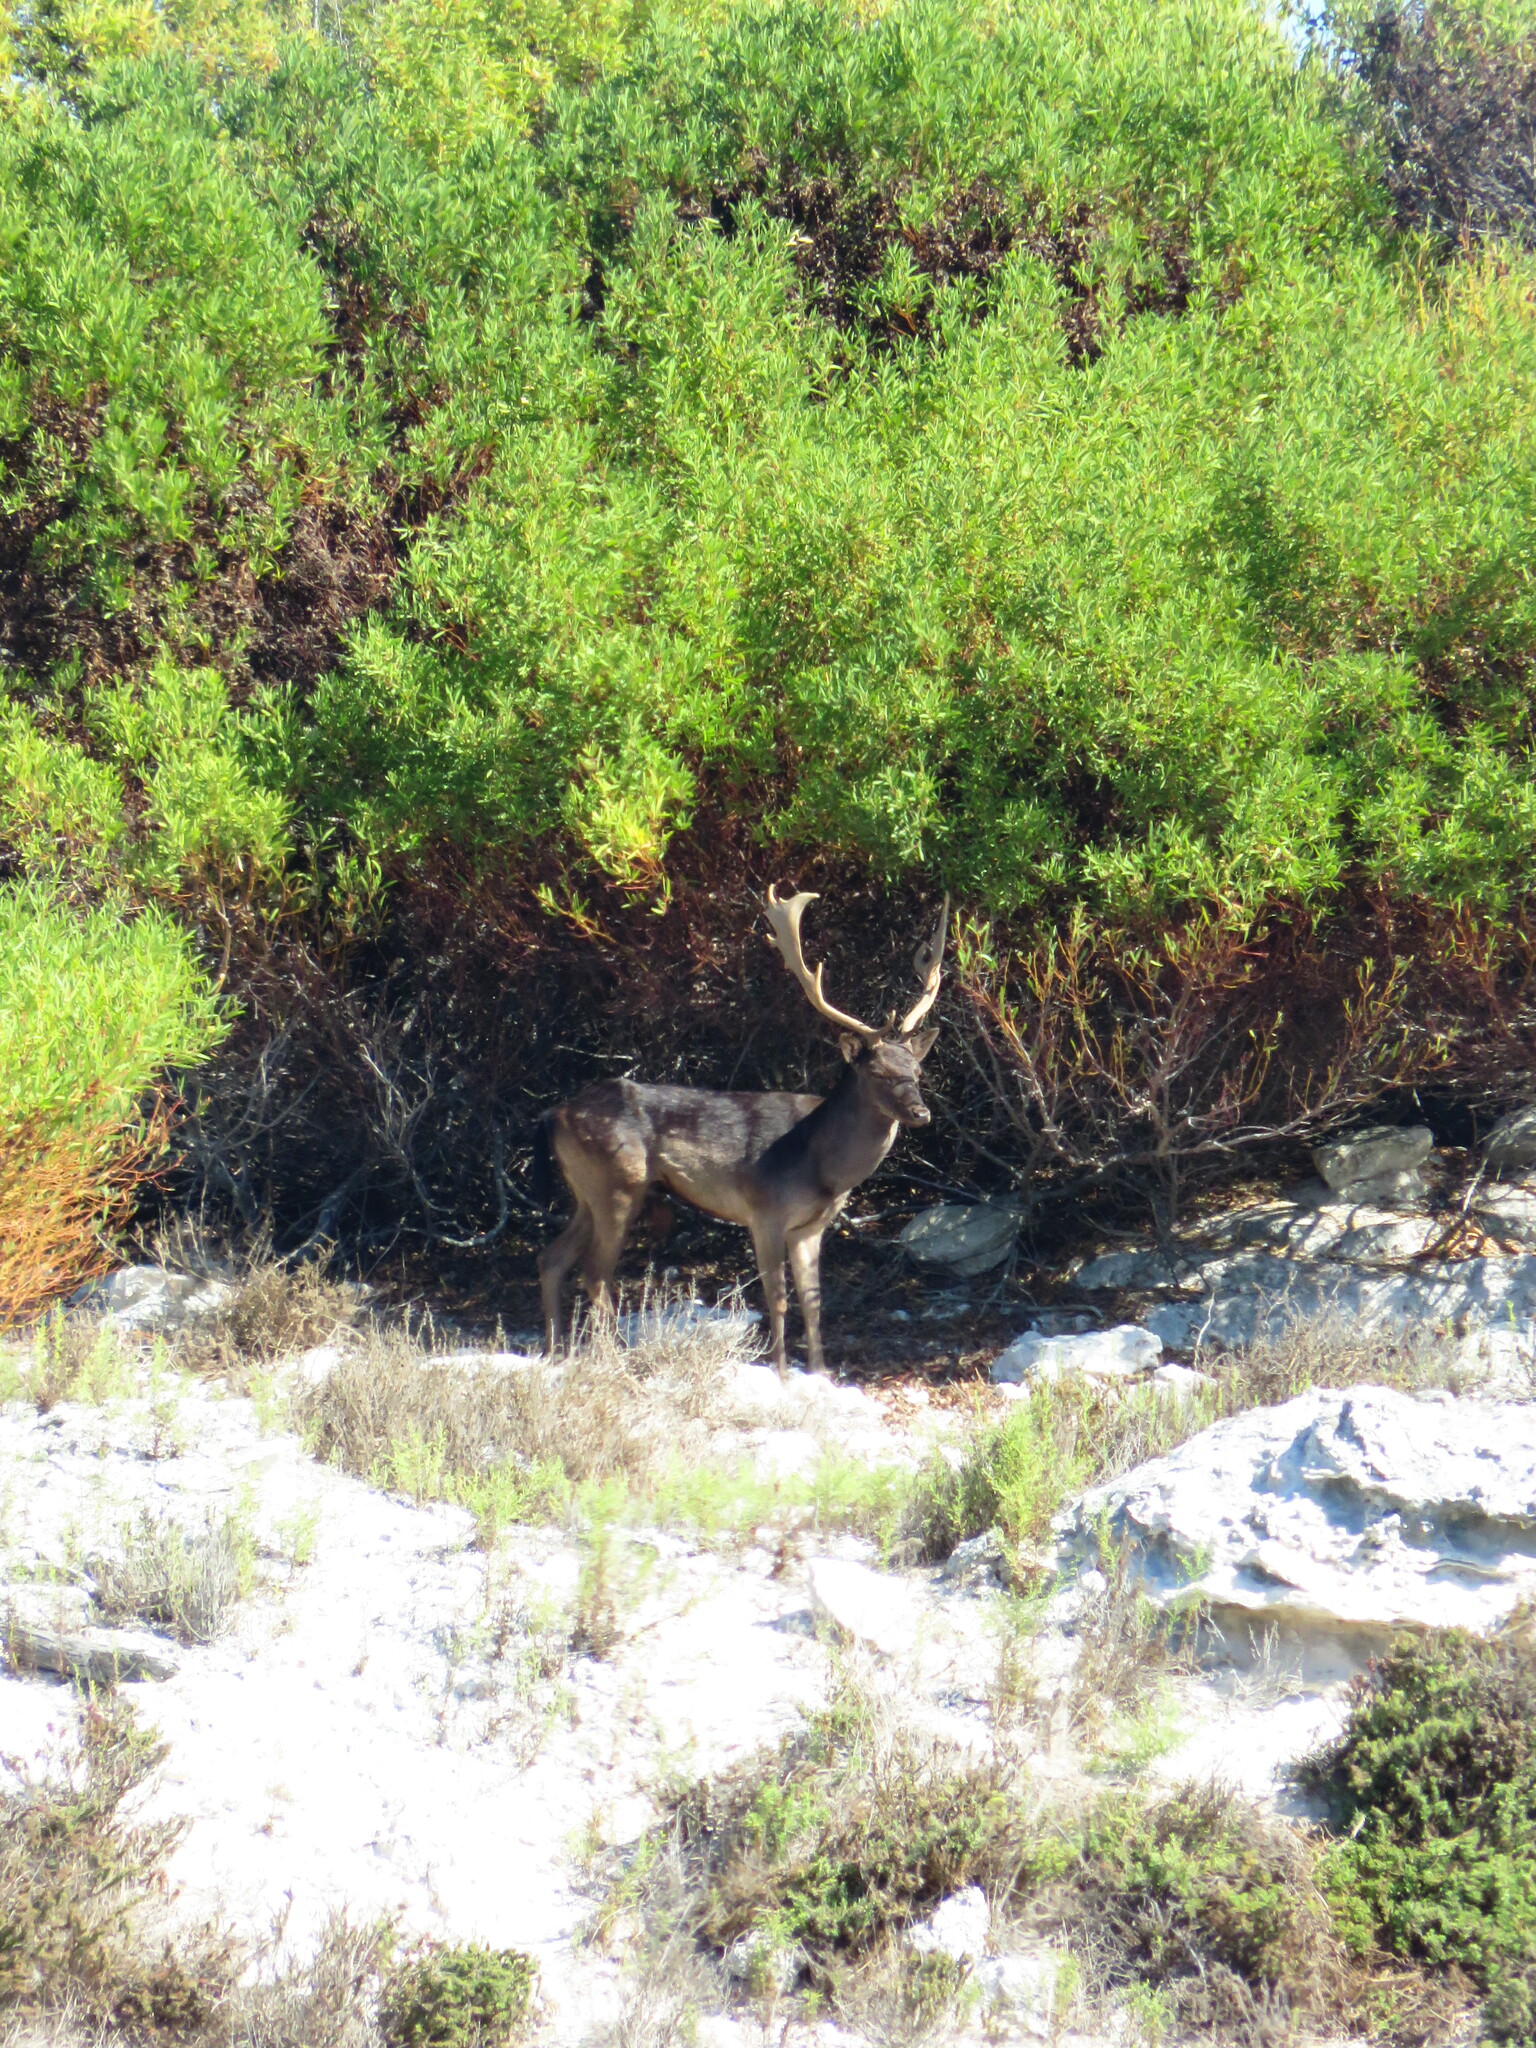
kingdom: Animalia
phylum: Chordata
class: Mammalia
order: Artiodactyla
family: Cervidae
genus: Dama
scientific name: Dama dama
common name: Fallow deer
